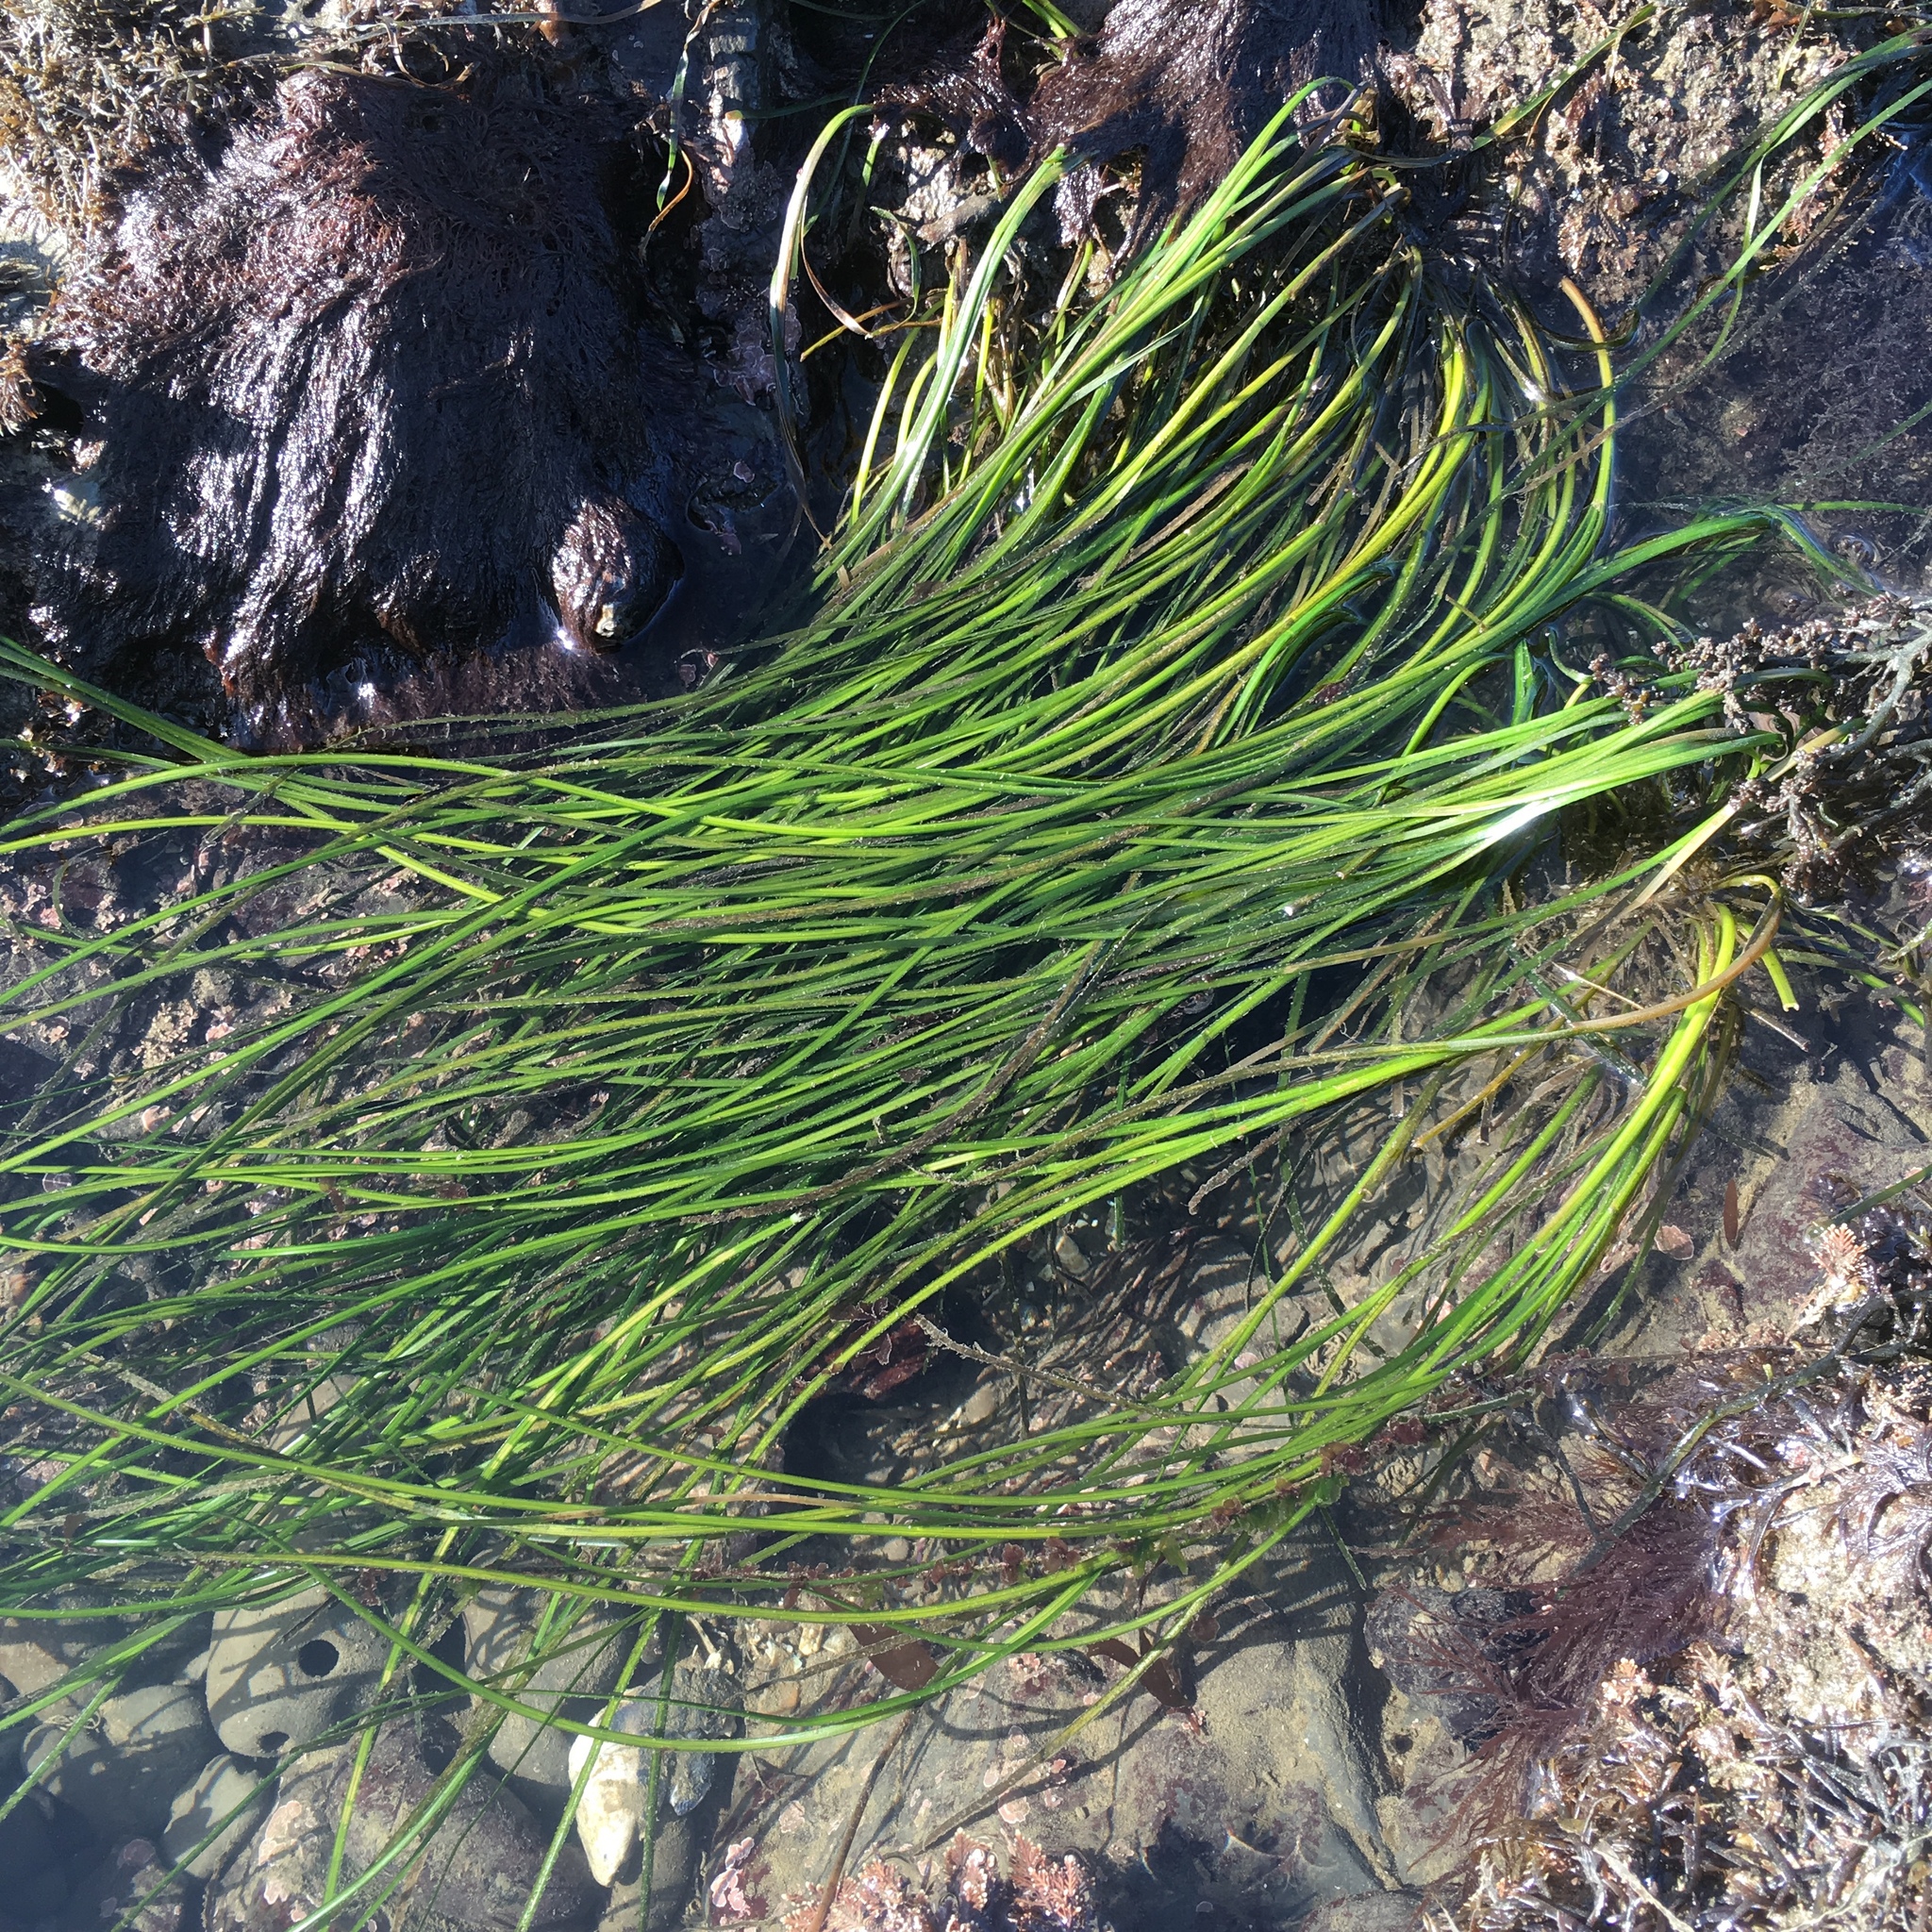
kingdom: Plantae
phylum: Tracheophyta
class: Liliopsida
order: Alismatales
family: Zosteraceae
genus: Phyllospadix
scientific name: Phyllospadix torreyi
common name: Surfgrass
